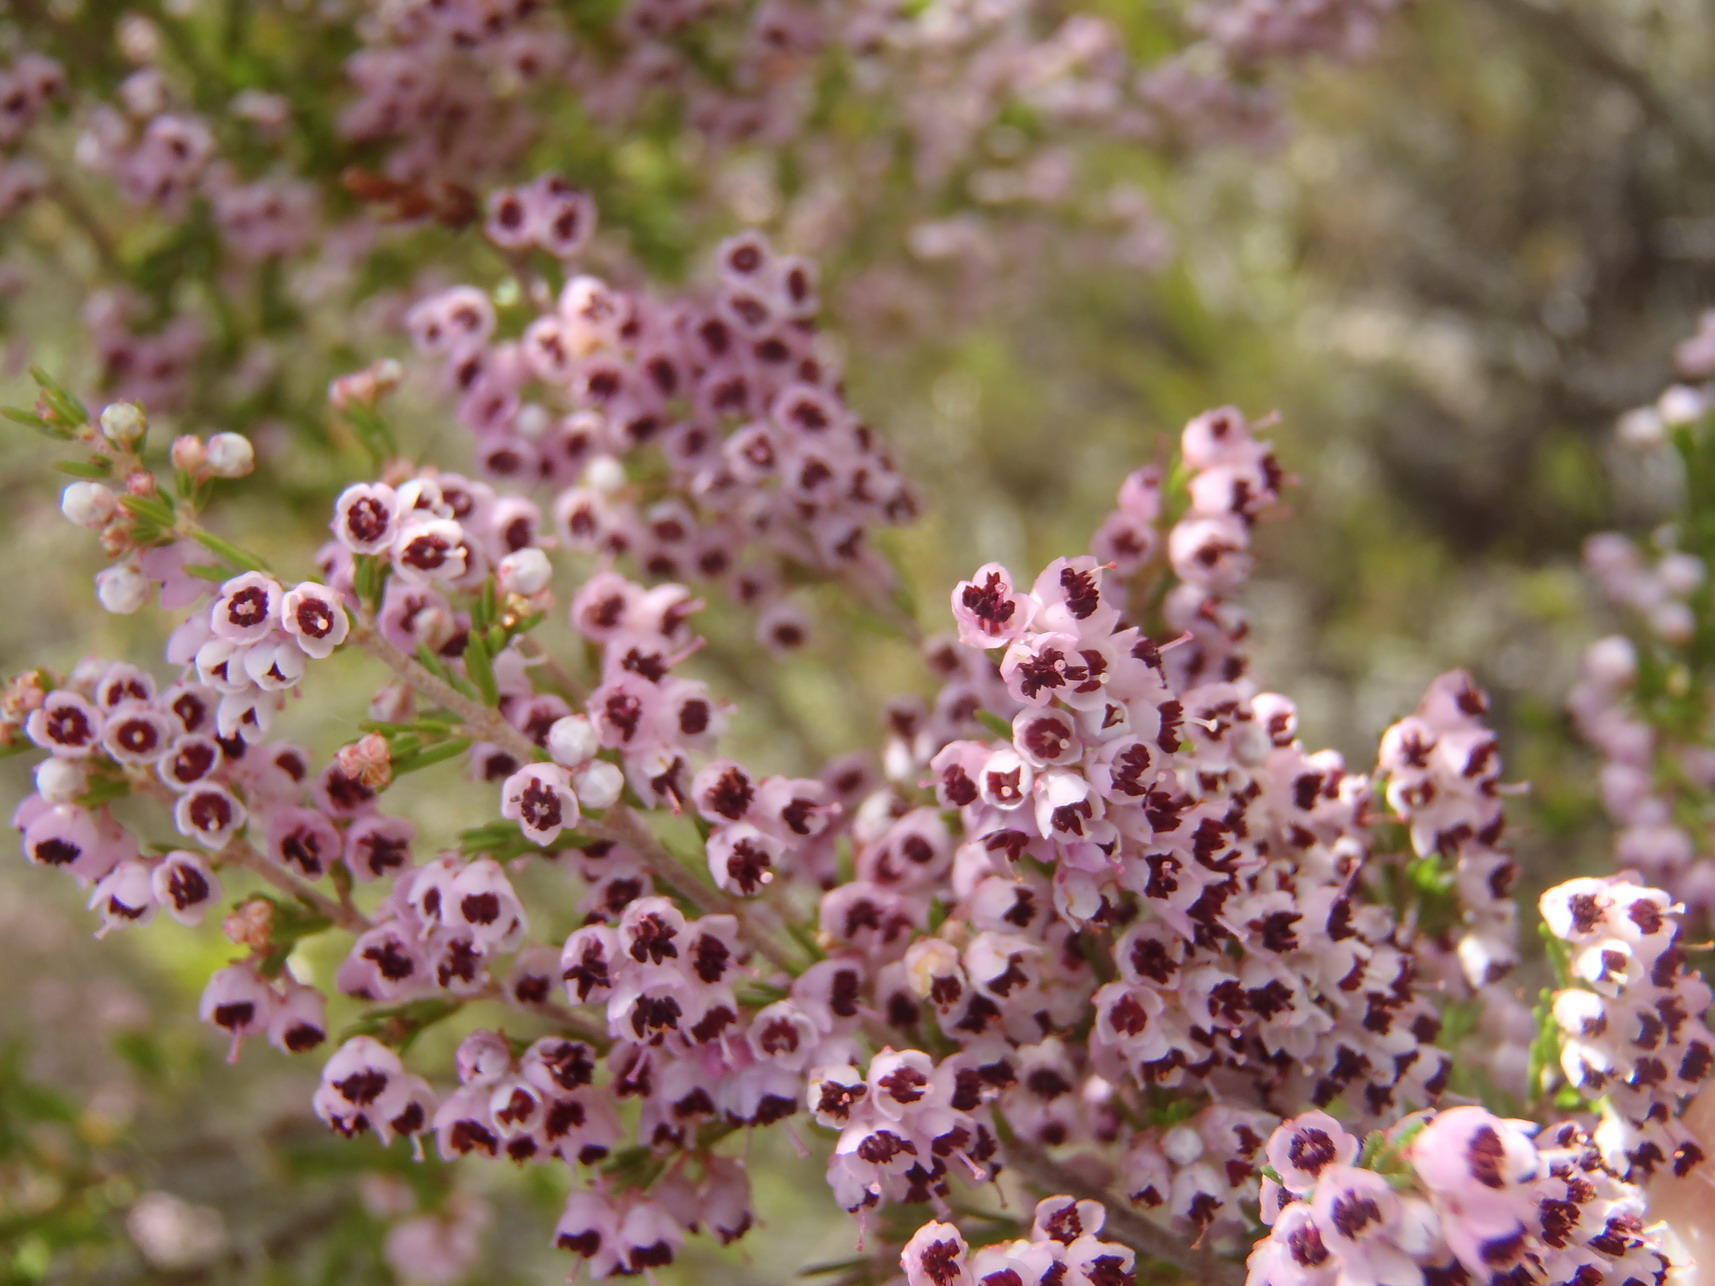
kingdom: Plantae
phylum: Tracheophyta
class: Magnoliopsida
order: Ericales
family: Ericaceae
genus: Erica
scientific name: Erica sparsa
